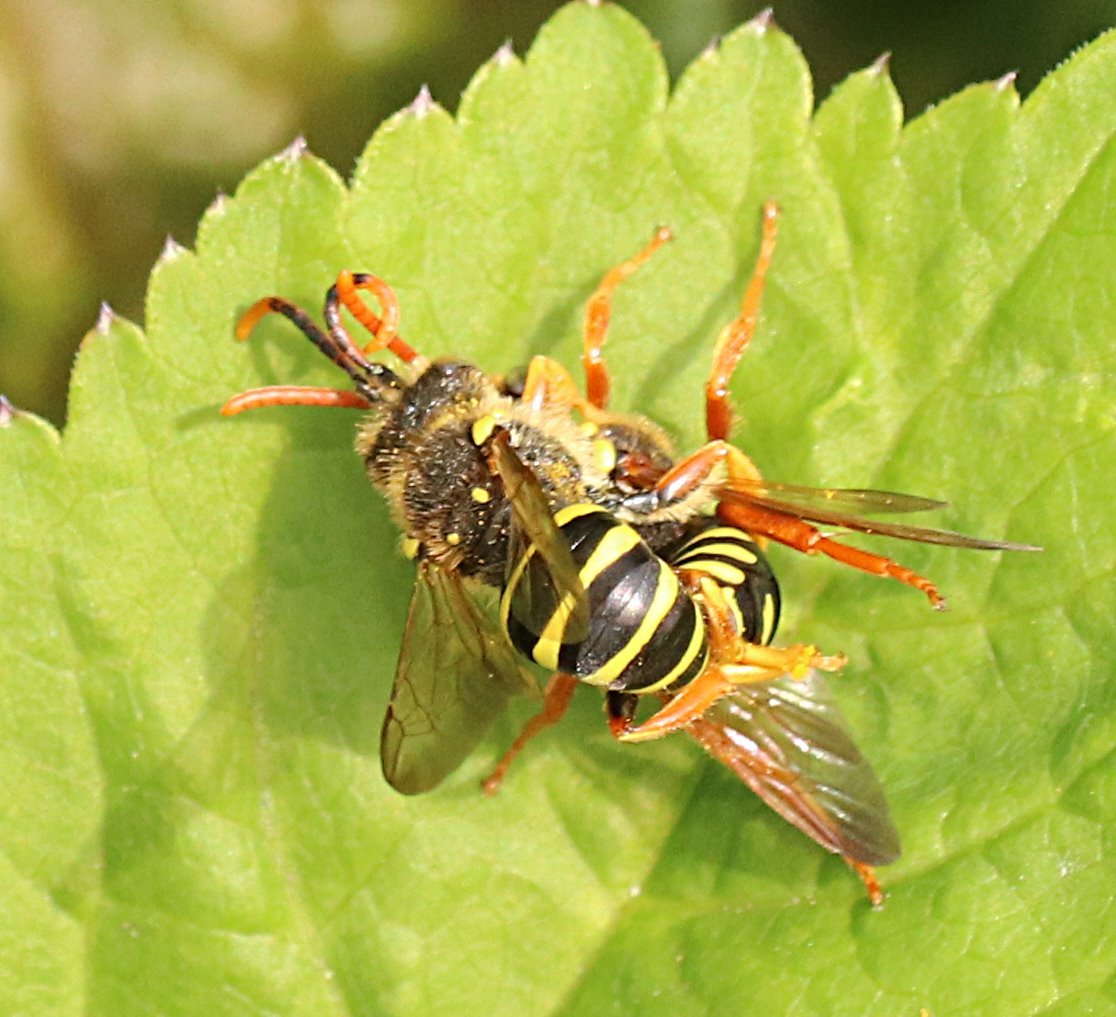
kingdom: Animalia
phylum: Arthropoda
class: Insecta
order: Hymenoptera
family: Apidae
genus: Nomada
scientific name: Nomada goodeniana
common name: Gooden's nomad bee
